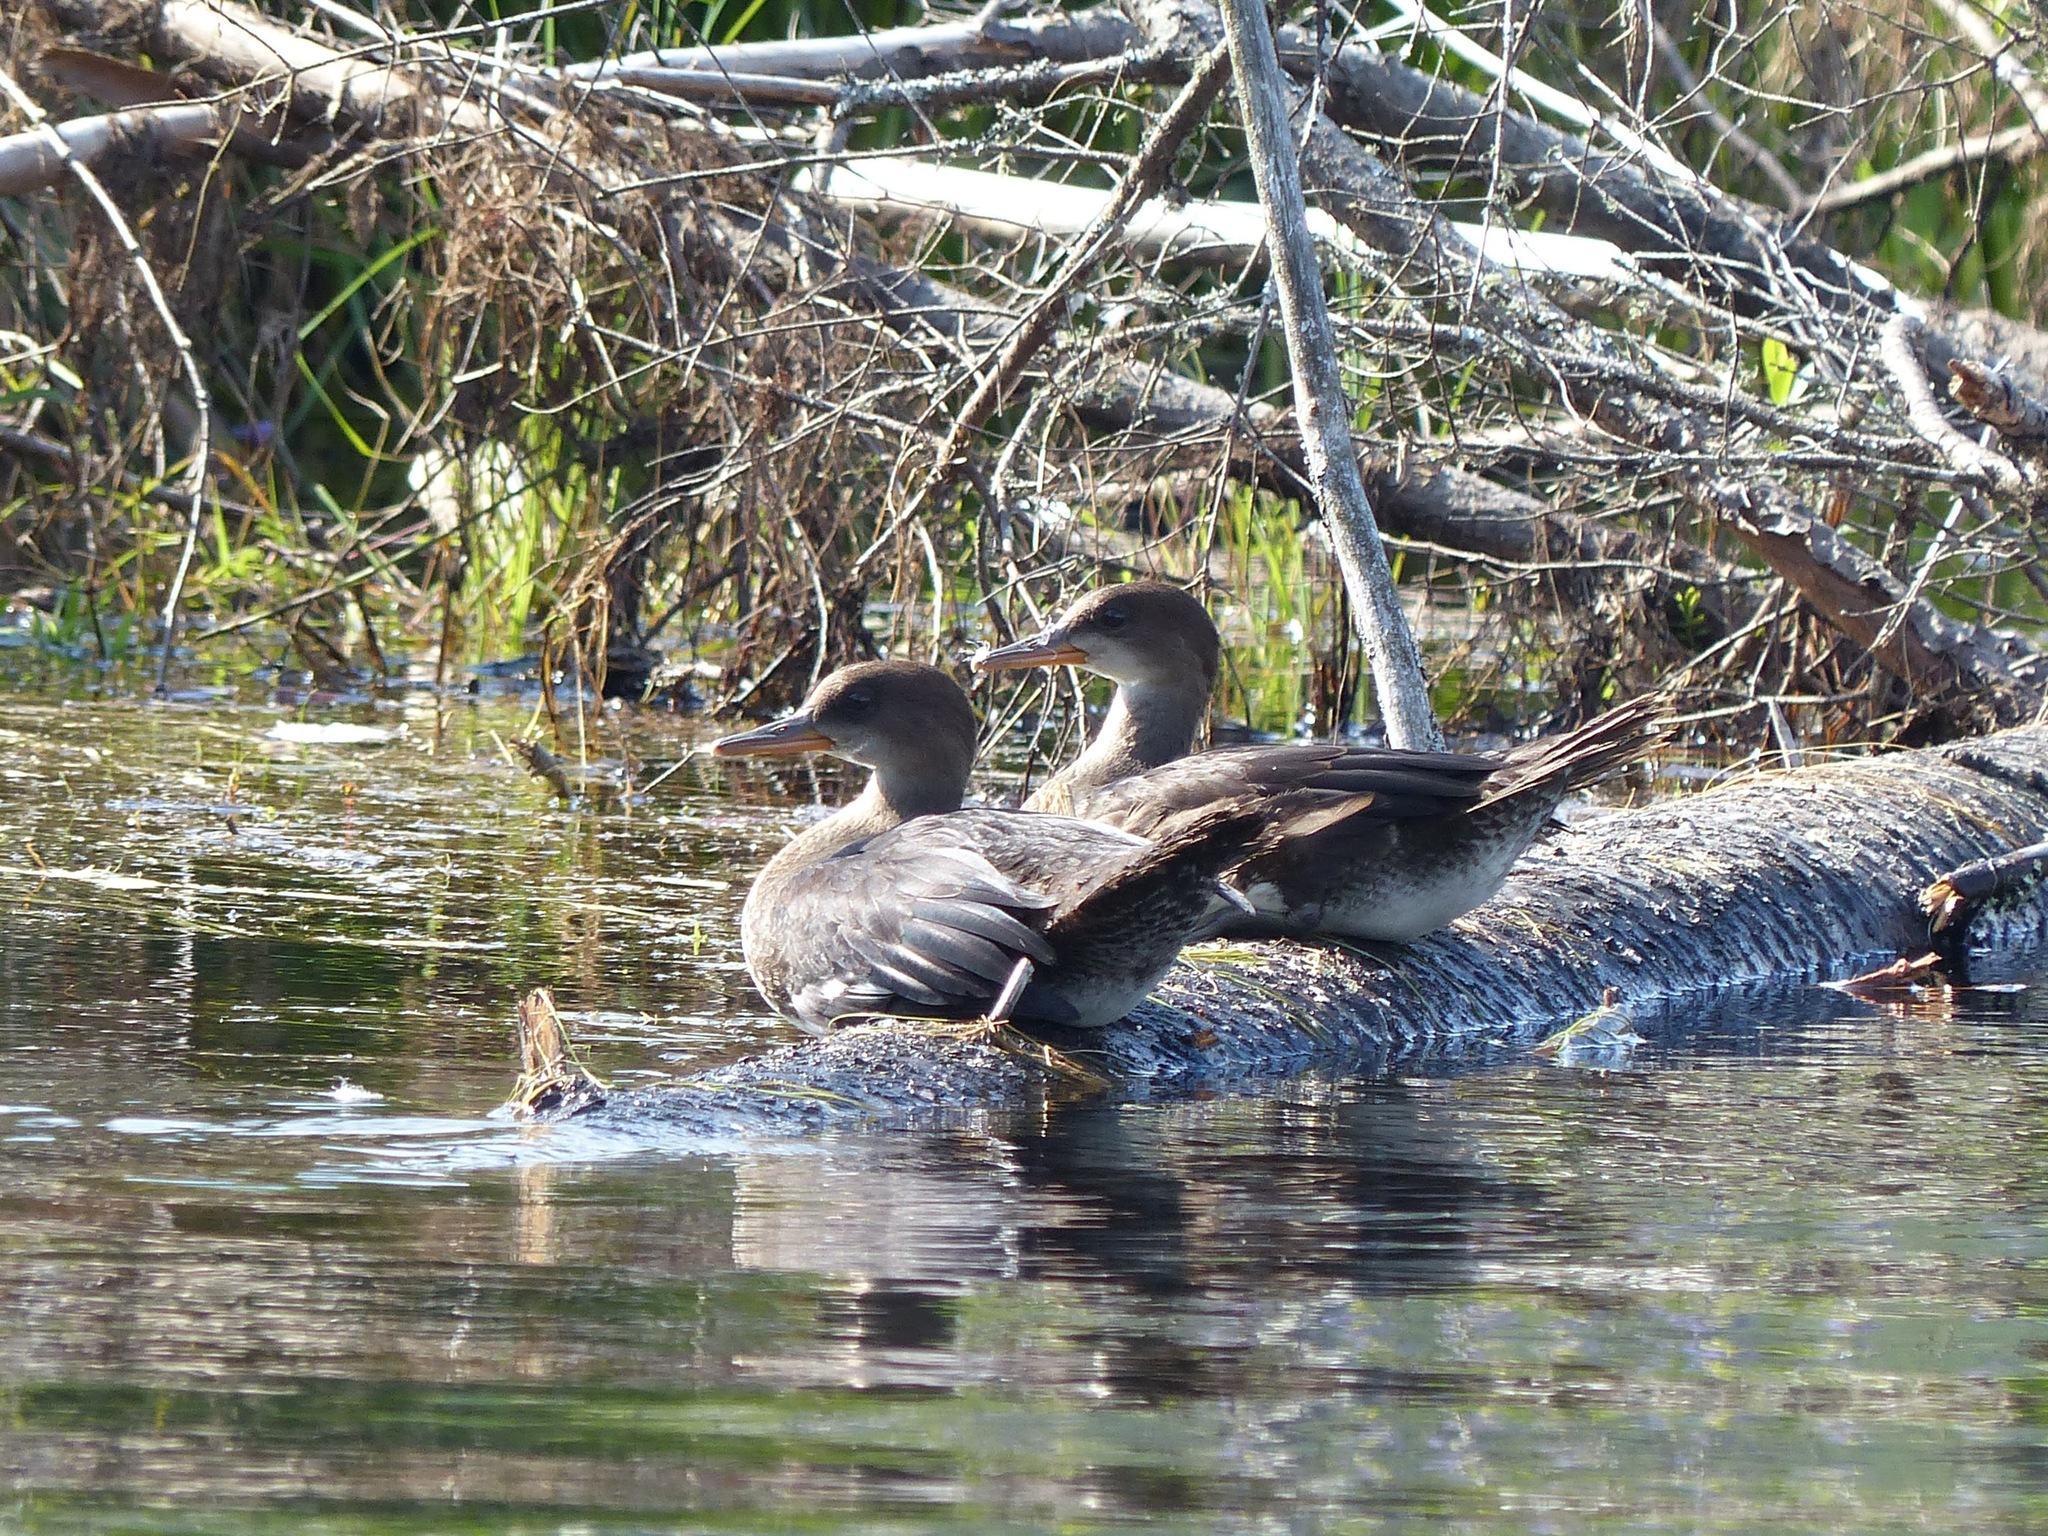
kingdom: Animalia
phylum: Chordata
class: Aves
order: Anseriformes
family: Anatidae
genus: Lophodytes
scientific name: Lophodytes cucullatus
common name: Hooded merganser
